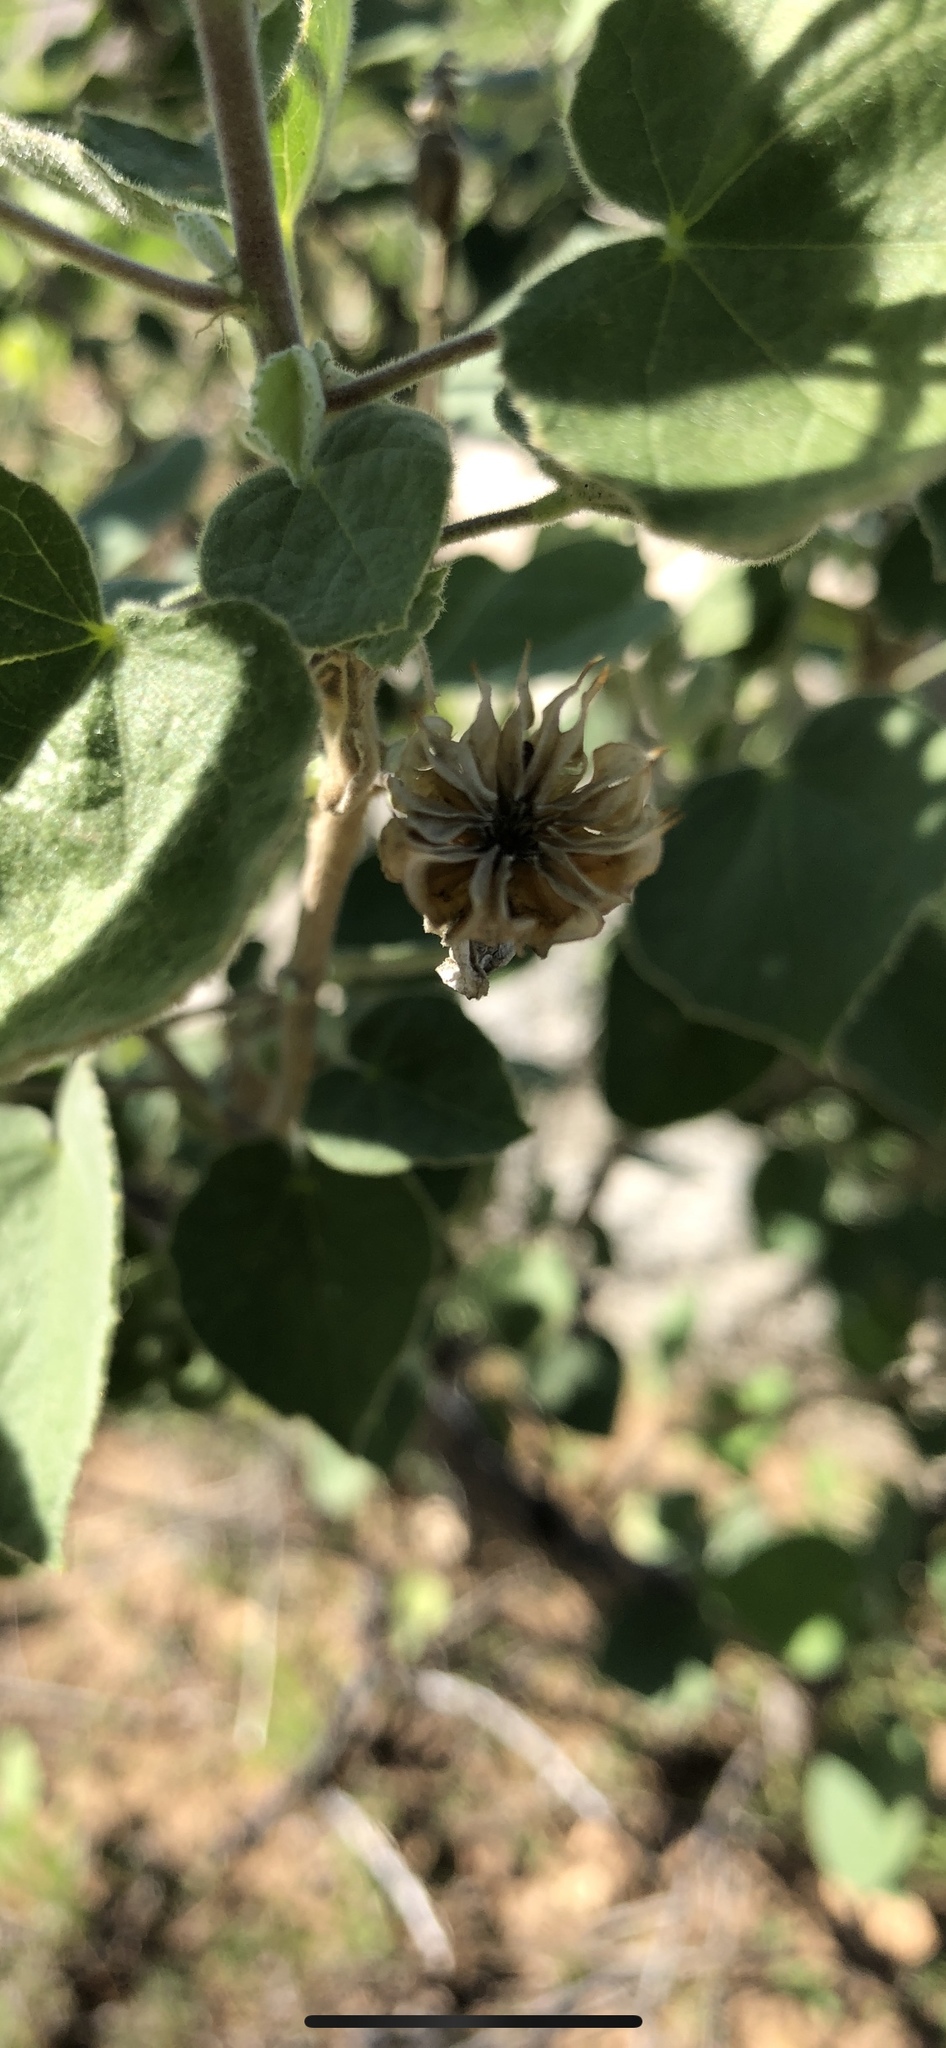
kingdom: Plantae
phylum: Tracheophyta
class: Magnoliopsida
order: Malvales
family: Malvaceae
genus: Abutilon
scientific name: Abutilon palmeri
